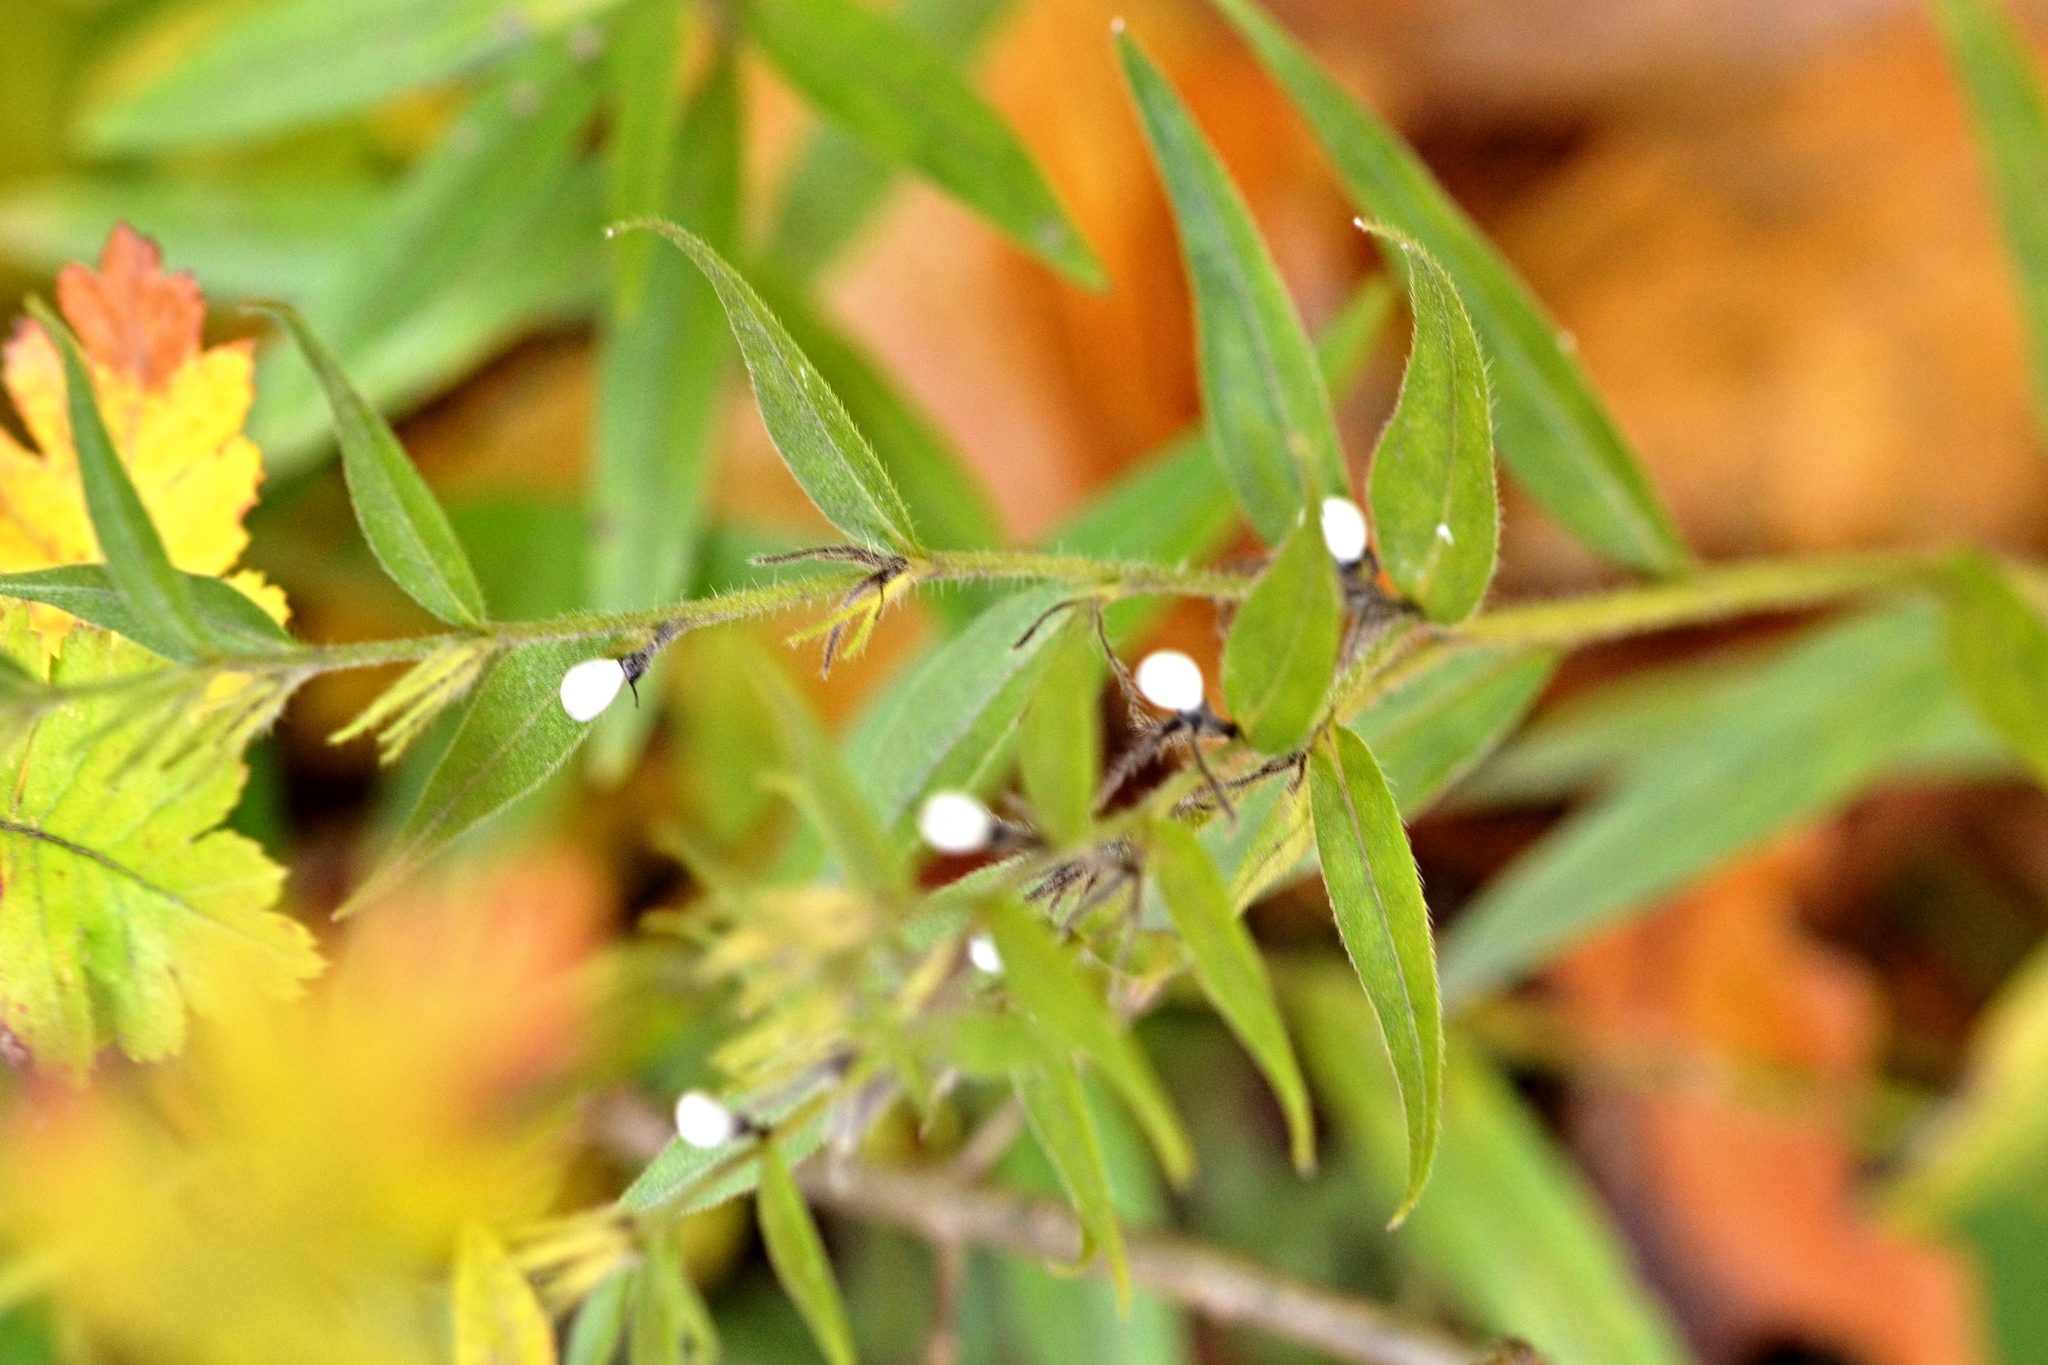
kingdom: Plantae
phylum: Tracheophyta
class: Magnoliopsida
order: Boraginales
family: Boraginaceae
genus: Aegonychon
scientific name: Aegonychon purpurocaeruleum
